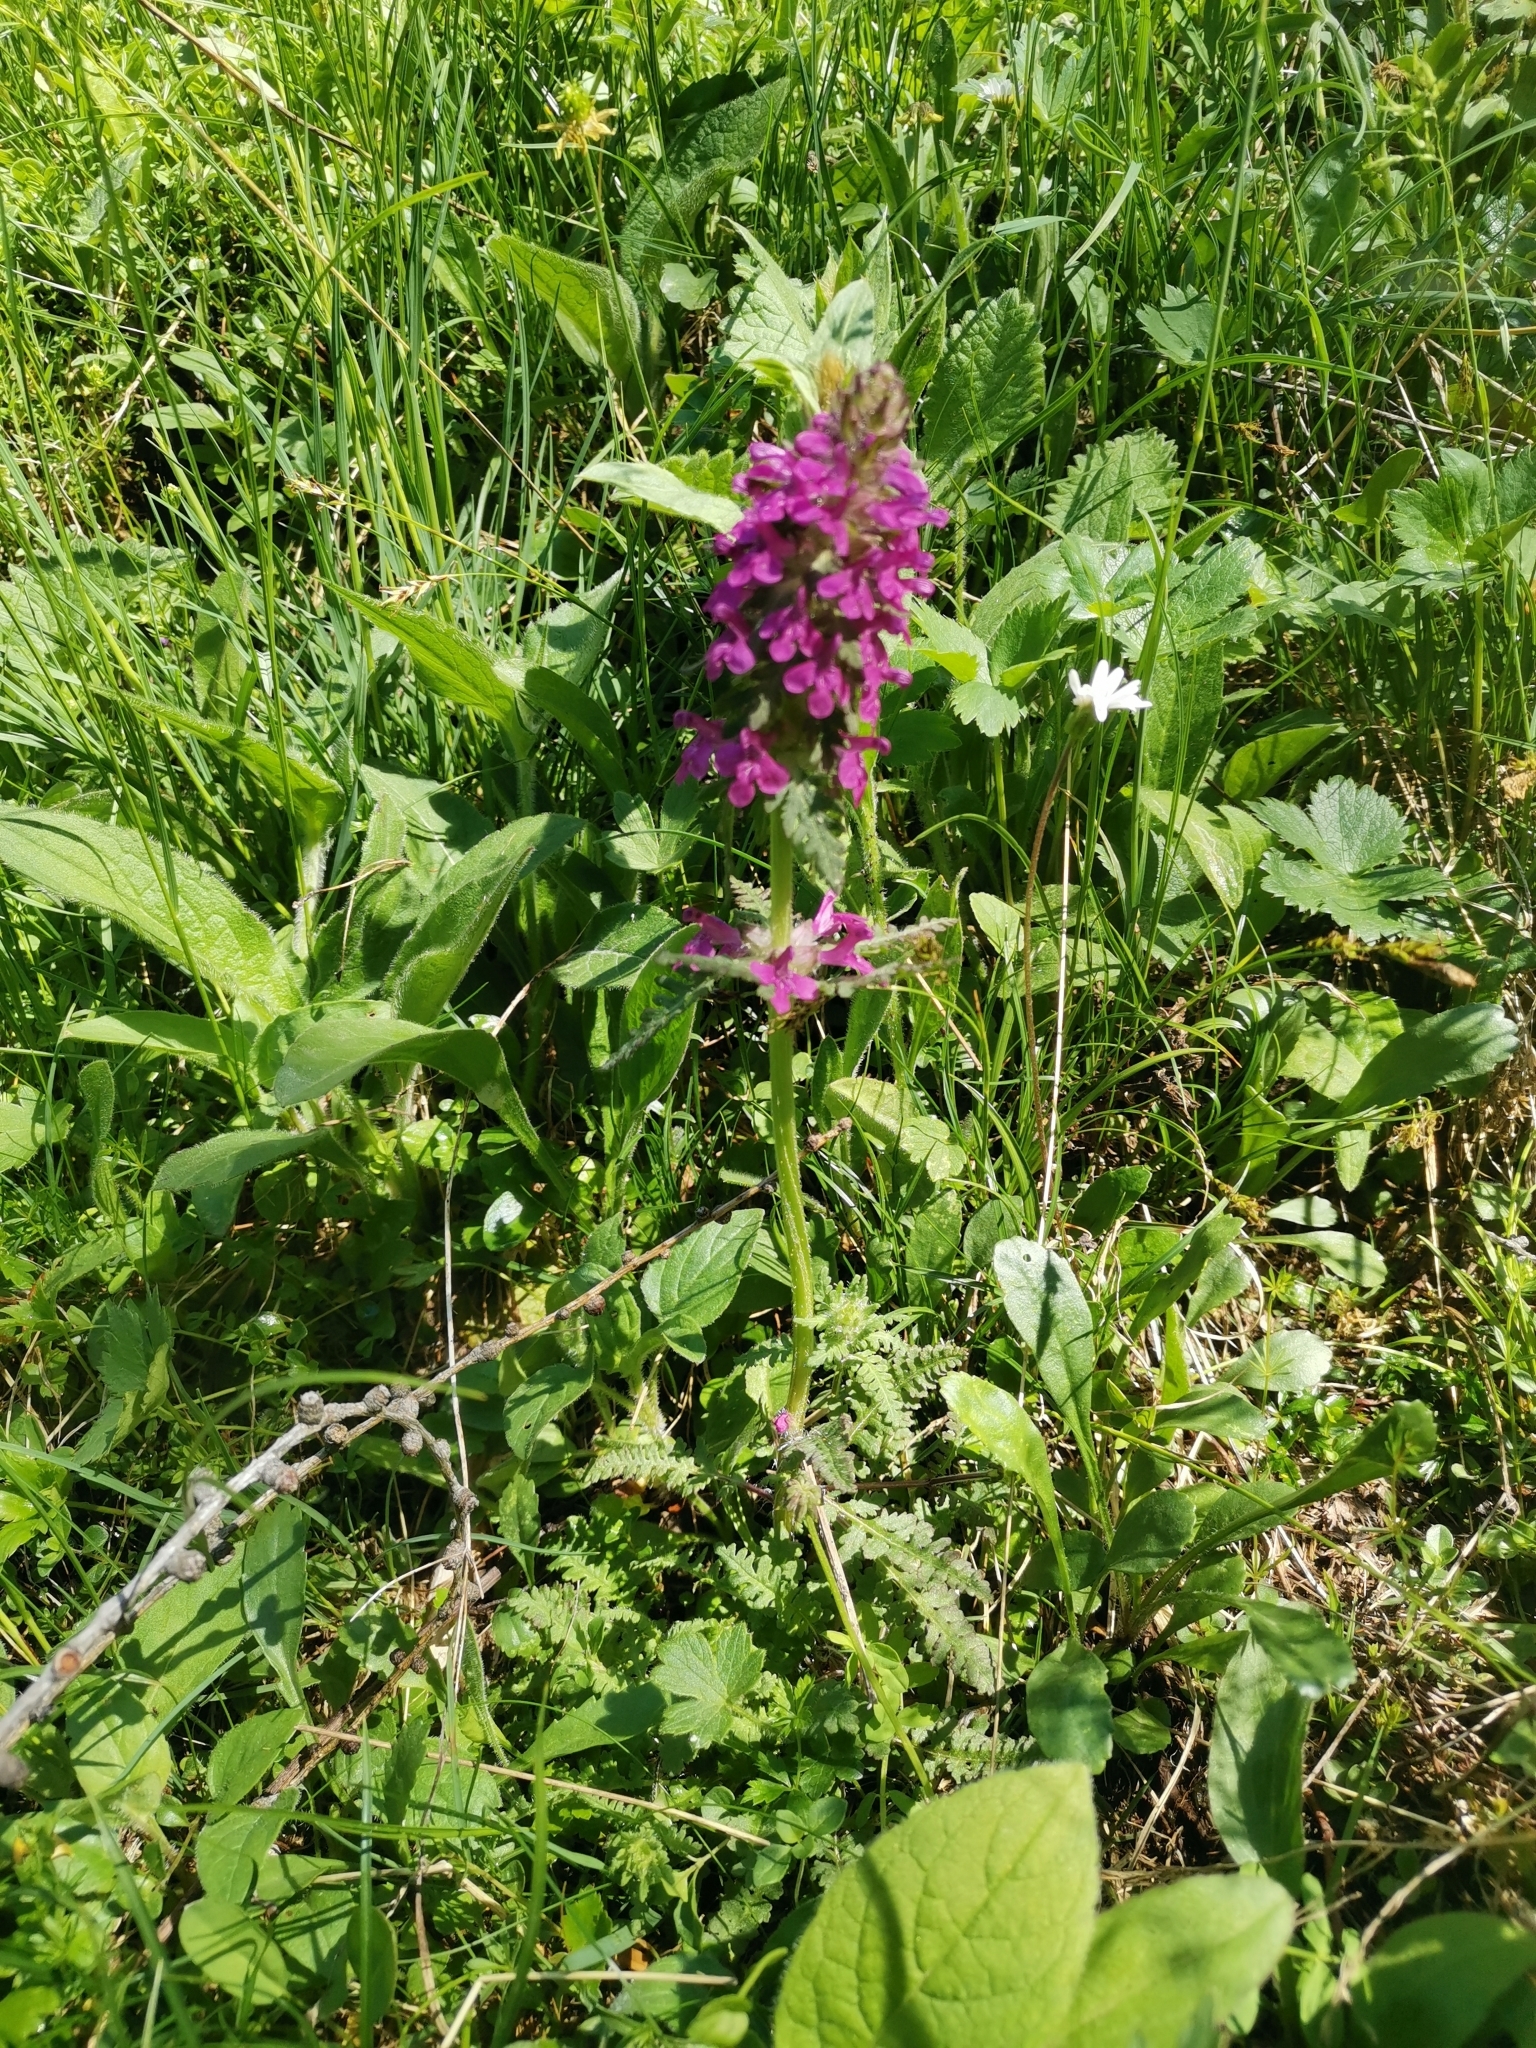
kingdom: Plantae
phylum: Tracheophyta
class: Magnoliopsida
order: Lamiales
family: Orobanchaceae
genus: Pedicularis
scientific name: Pedicularis verticillata
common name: Whorled lousewort
